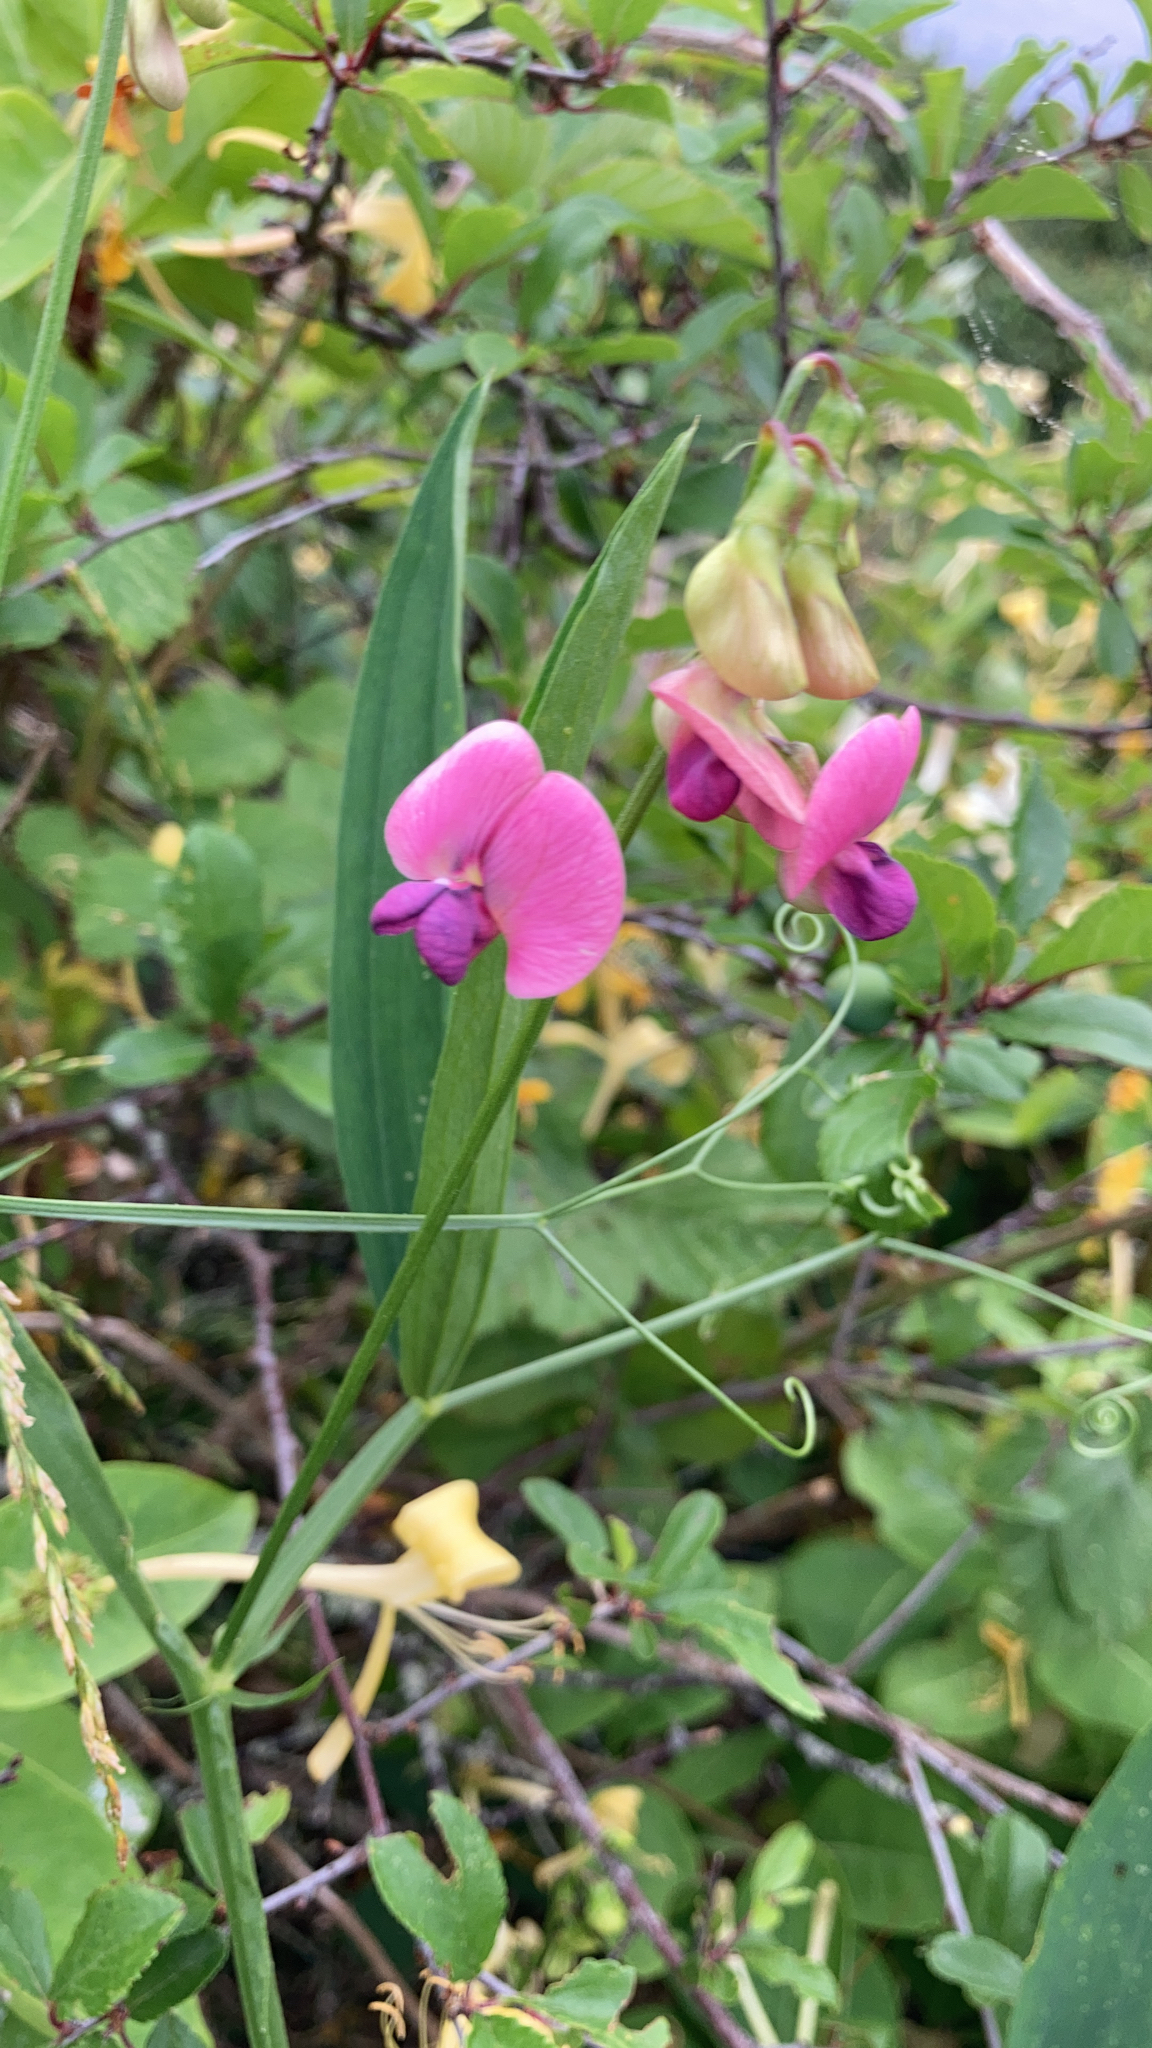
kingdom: Plantae
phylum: Tracheophyta
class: Magnoliopsida
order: Fabales
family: Fabaceae
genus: Lathyrus
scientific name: Lathyrus sylvestris
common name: Flat pea
